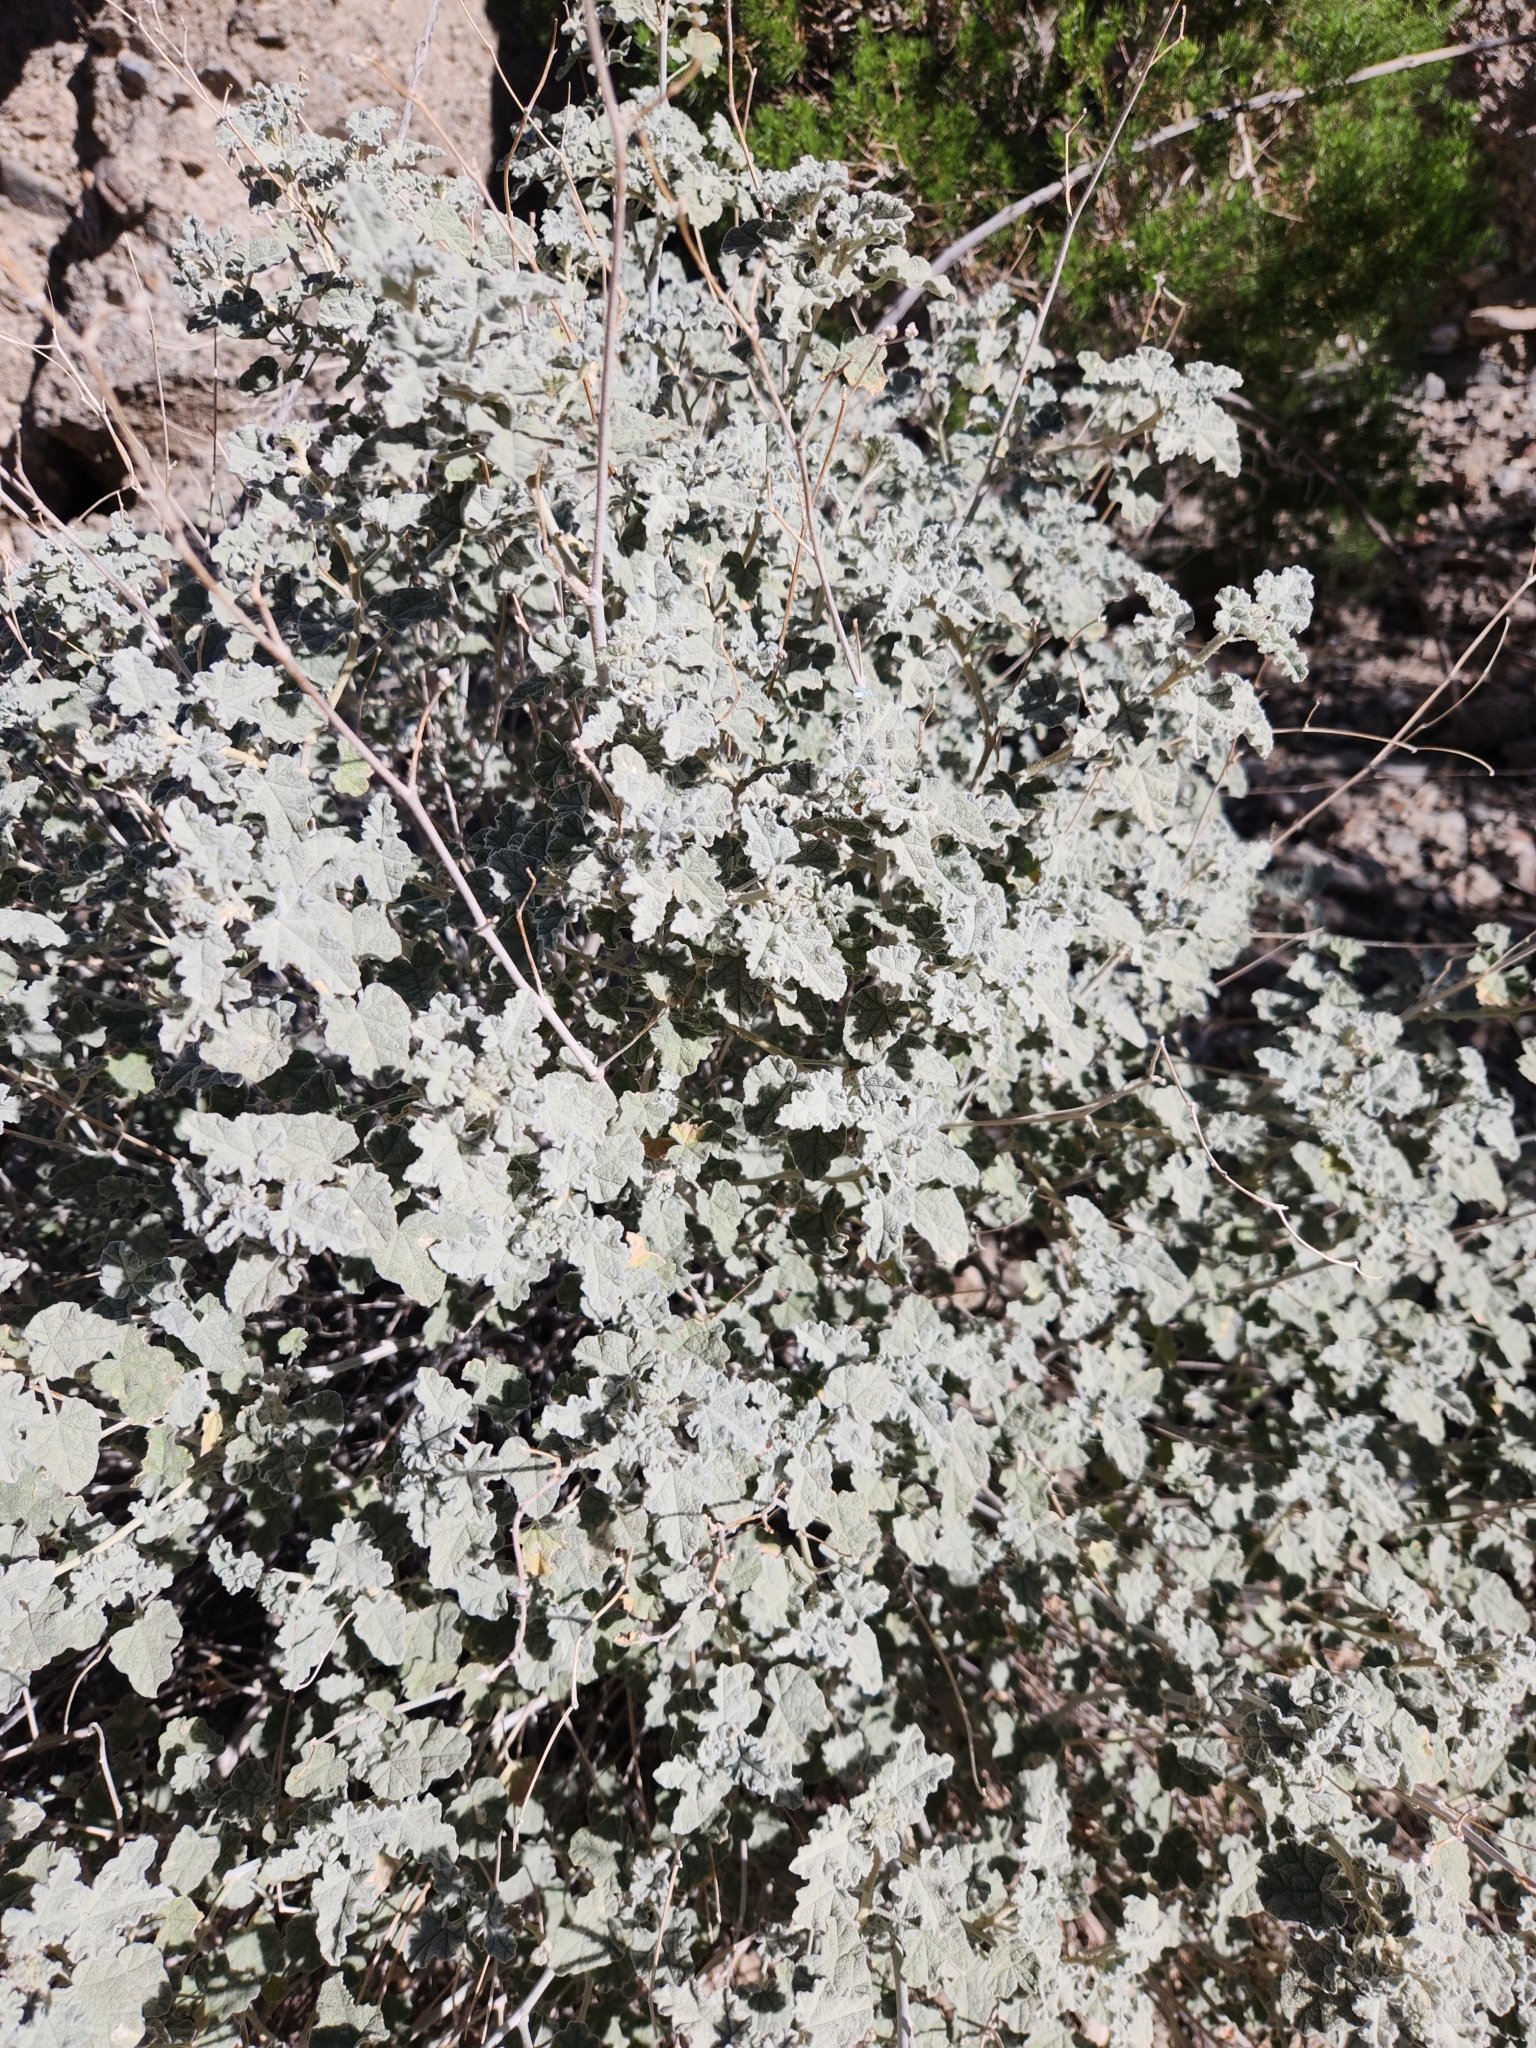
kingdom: Plantae
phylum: Tracheophyta
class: Magnoliopsida
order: Malvales
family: Malvaceae
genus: Sphaeralcea
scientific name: Sphaeralcea ambigua
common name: Apricot globe-mallow
